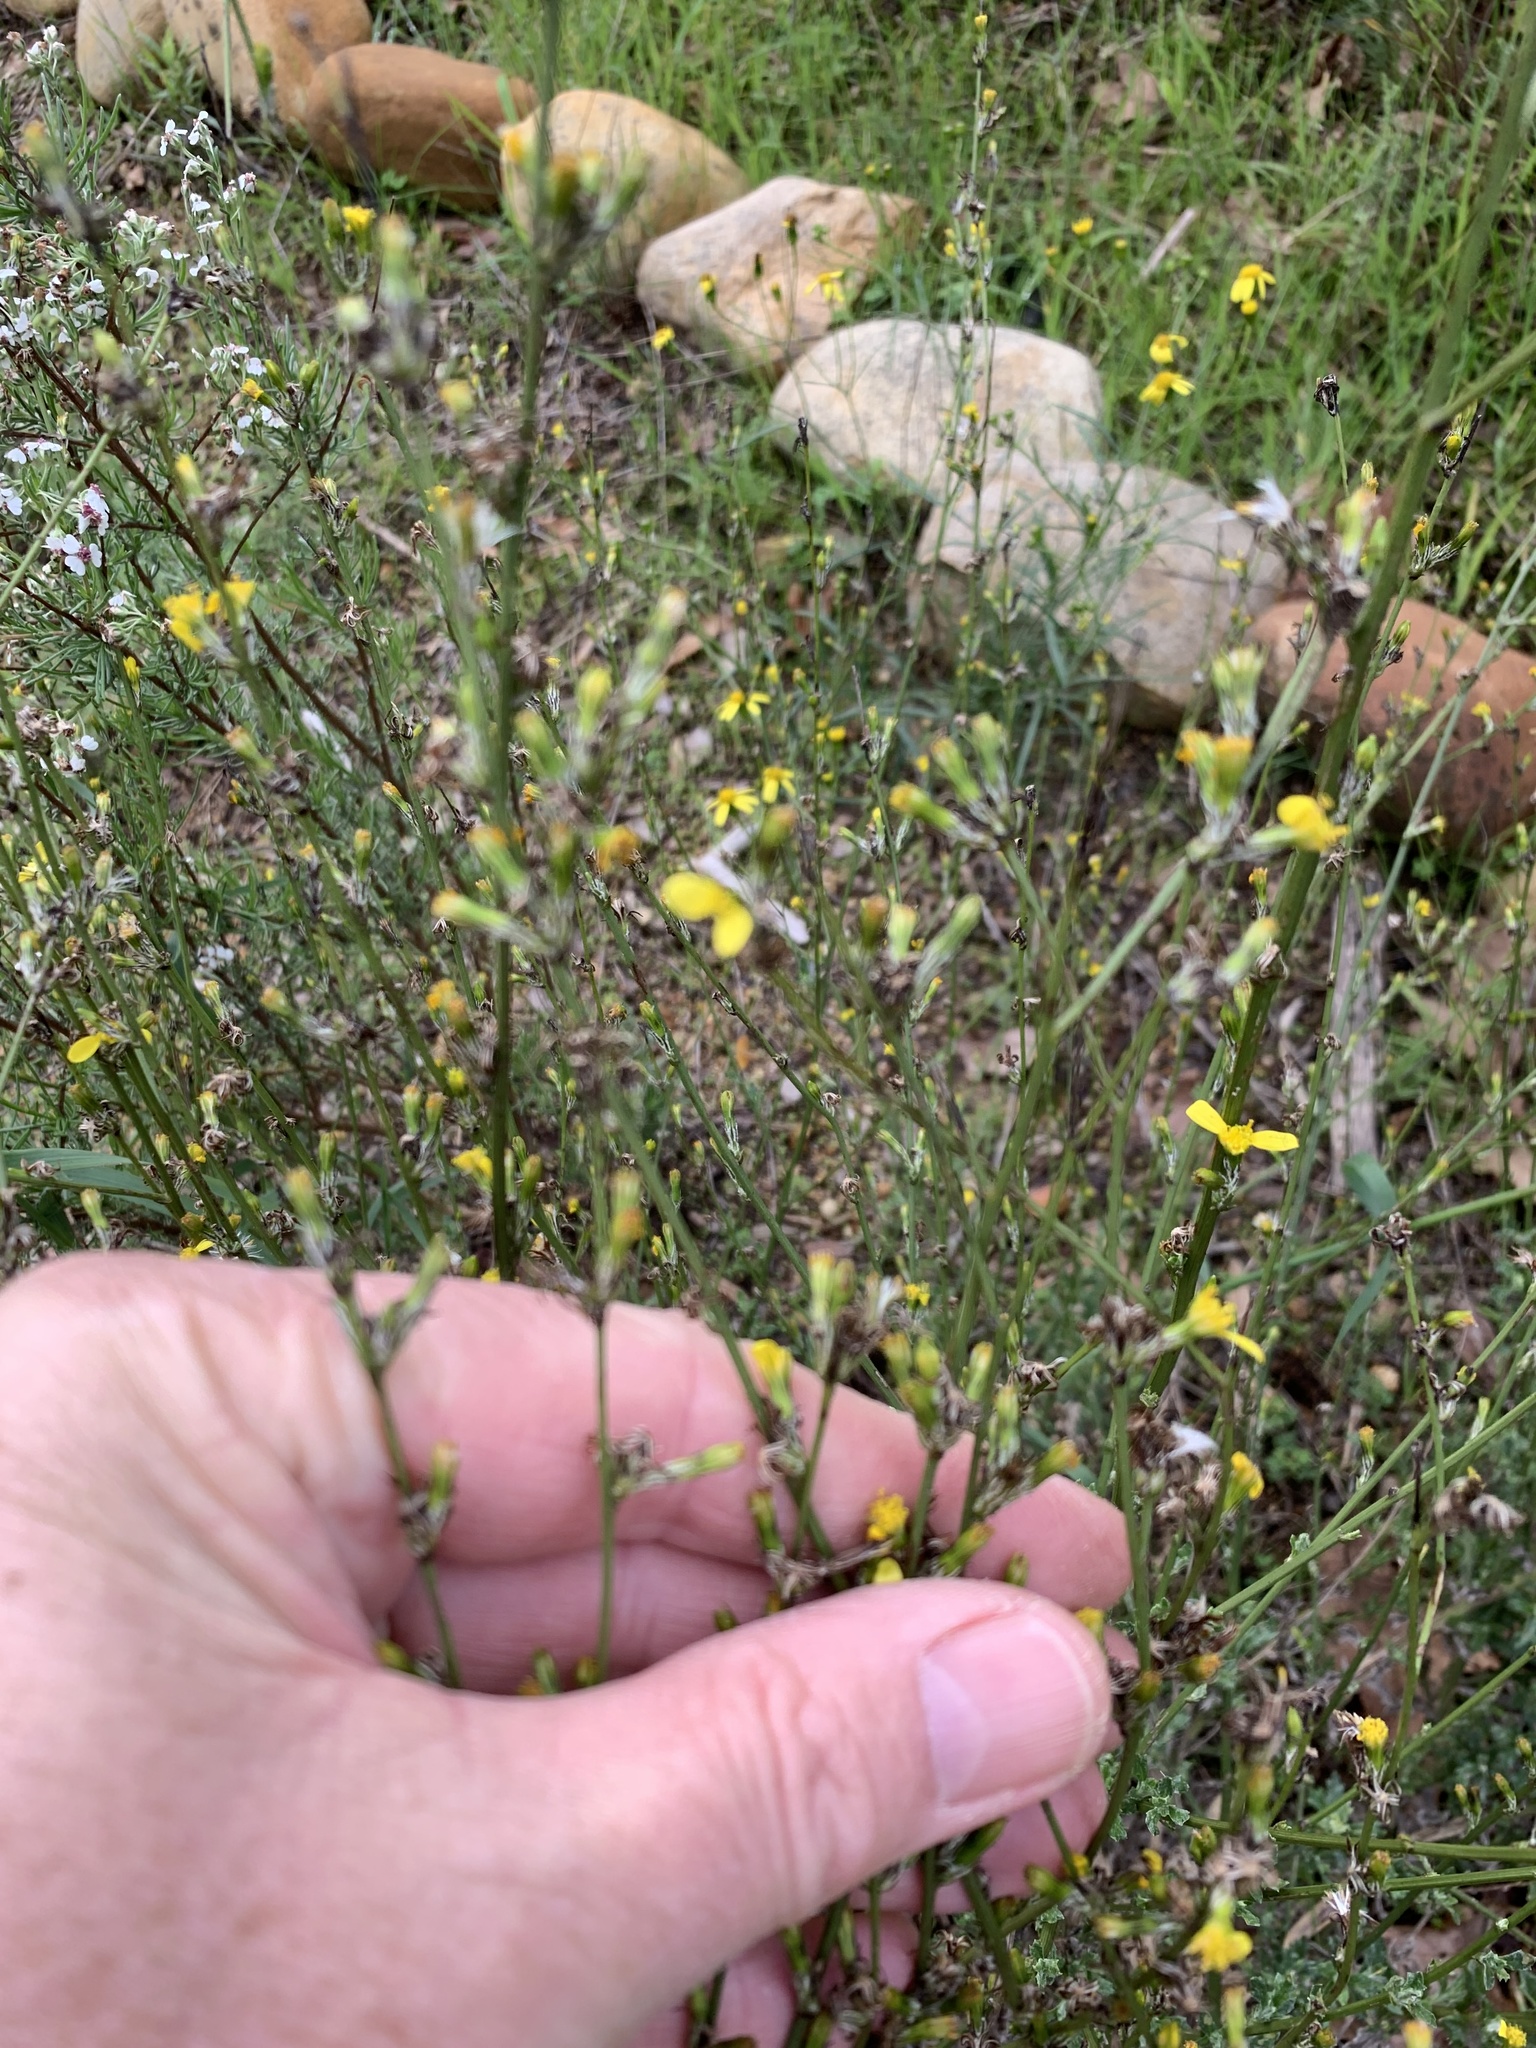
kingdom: Plantae
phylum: Tracheophyta
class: Magnoliopsida
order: Asterales
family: Asteraceae
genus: Senecio
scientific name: Senecio pubigerus
